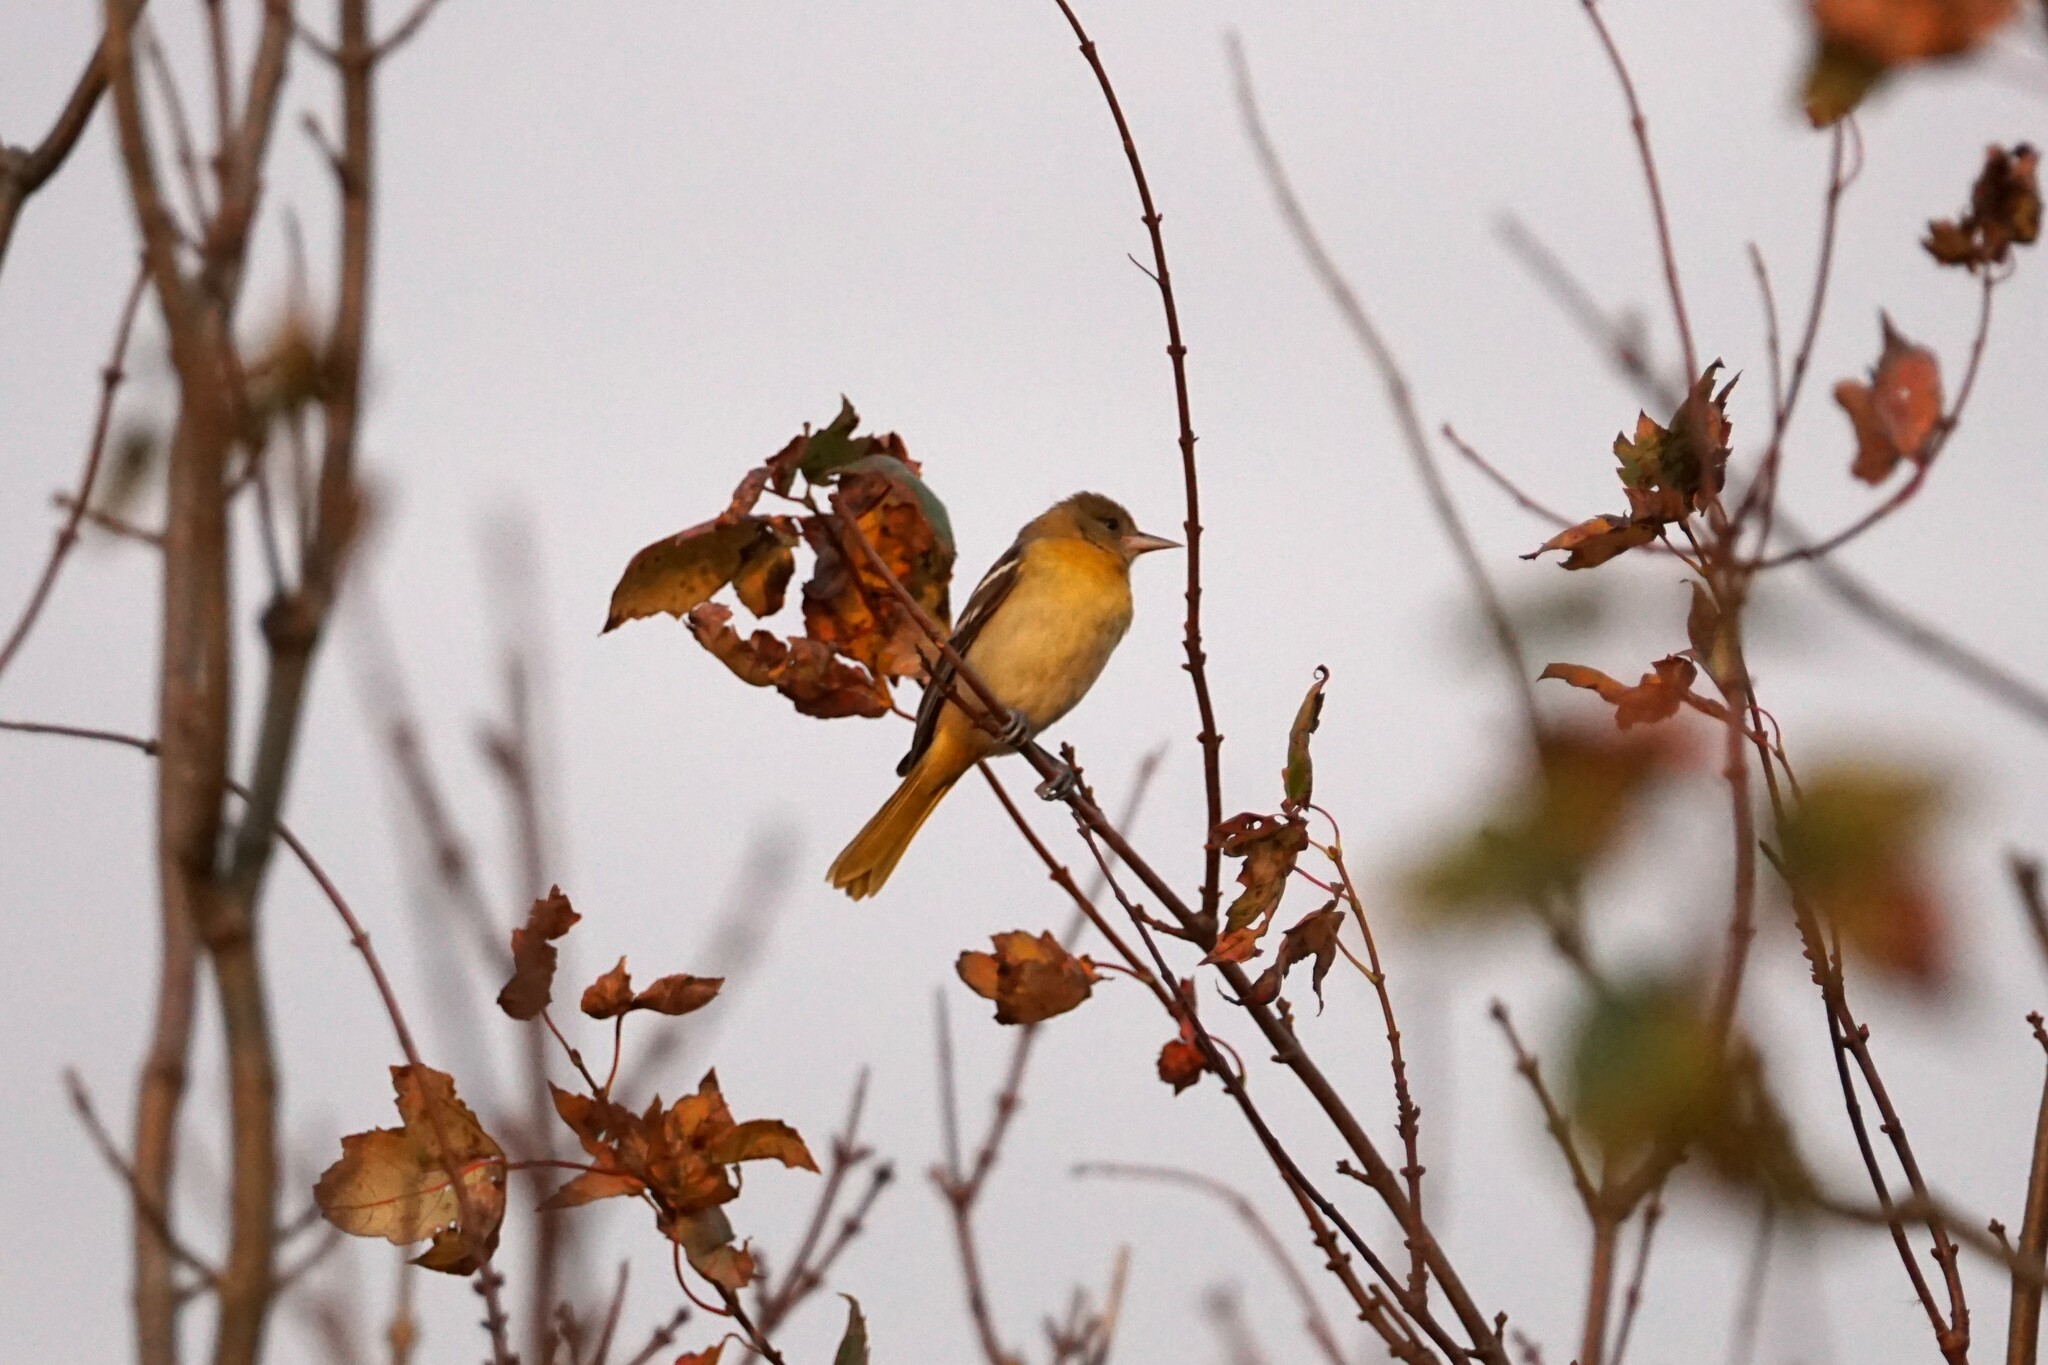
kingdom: Animalia
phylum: Chordata
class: Aves
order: Passeriformes
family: Icteridae
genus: Icterus
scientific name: Icterus galbula
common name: Baltimore oriole
